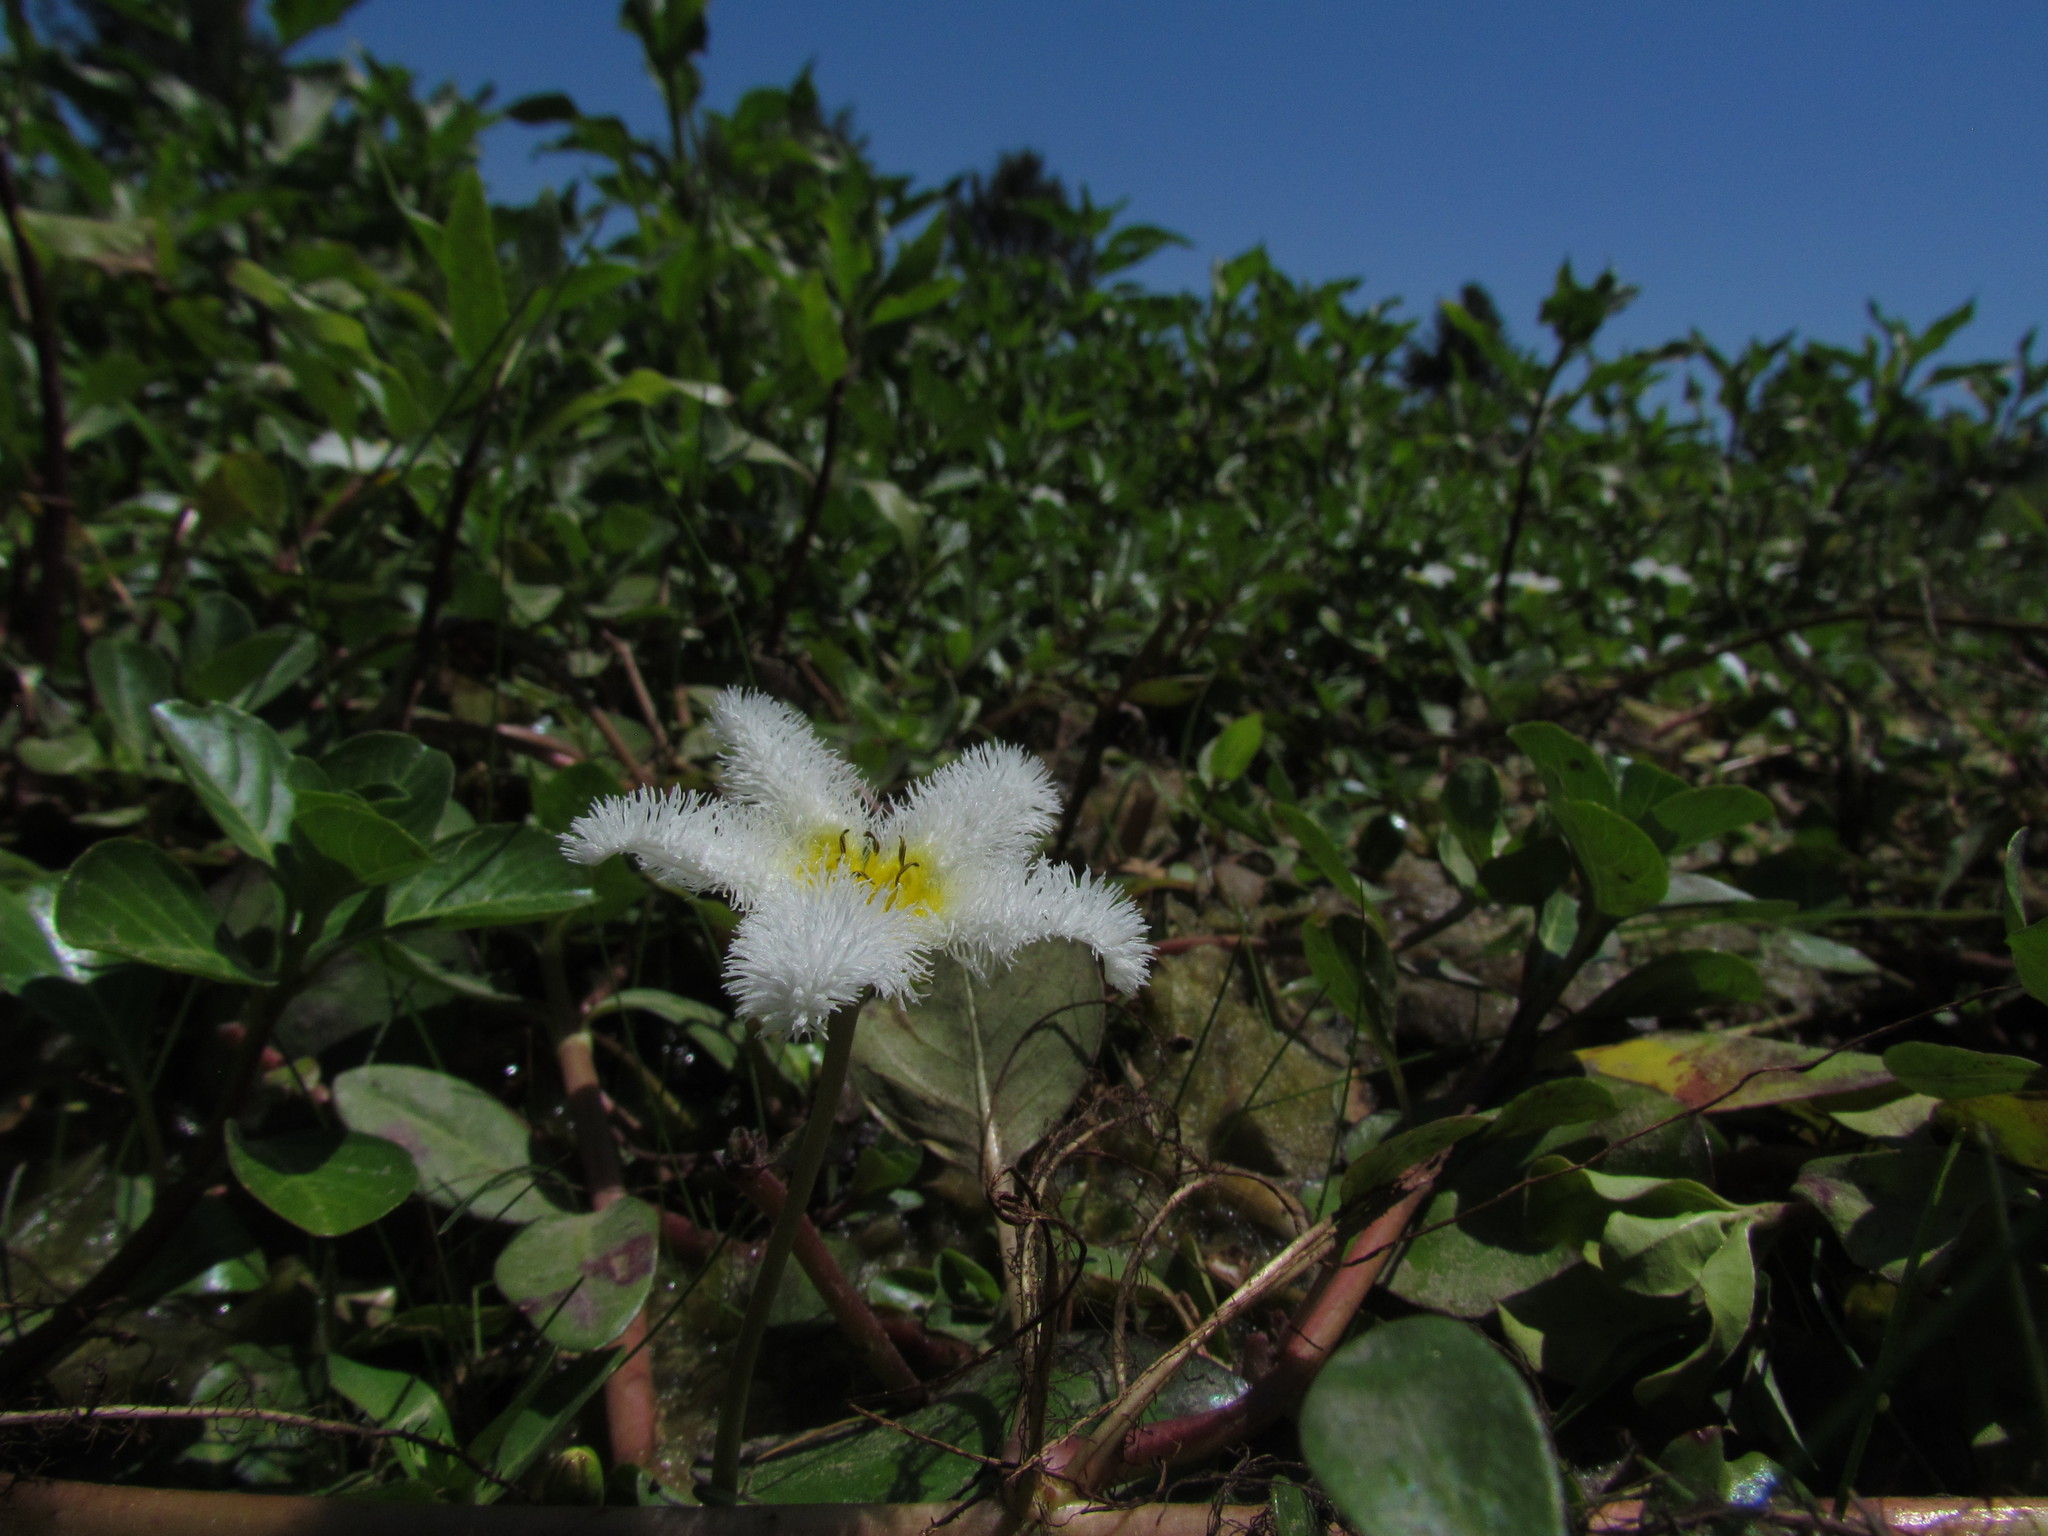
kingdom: Plantae
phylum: Tracheophyta
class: Magnoliopsida
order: Asterales
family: Menyanthaceae
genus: Nymphoides
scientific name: Nymphoides humboldtiana
